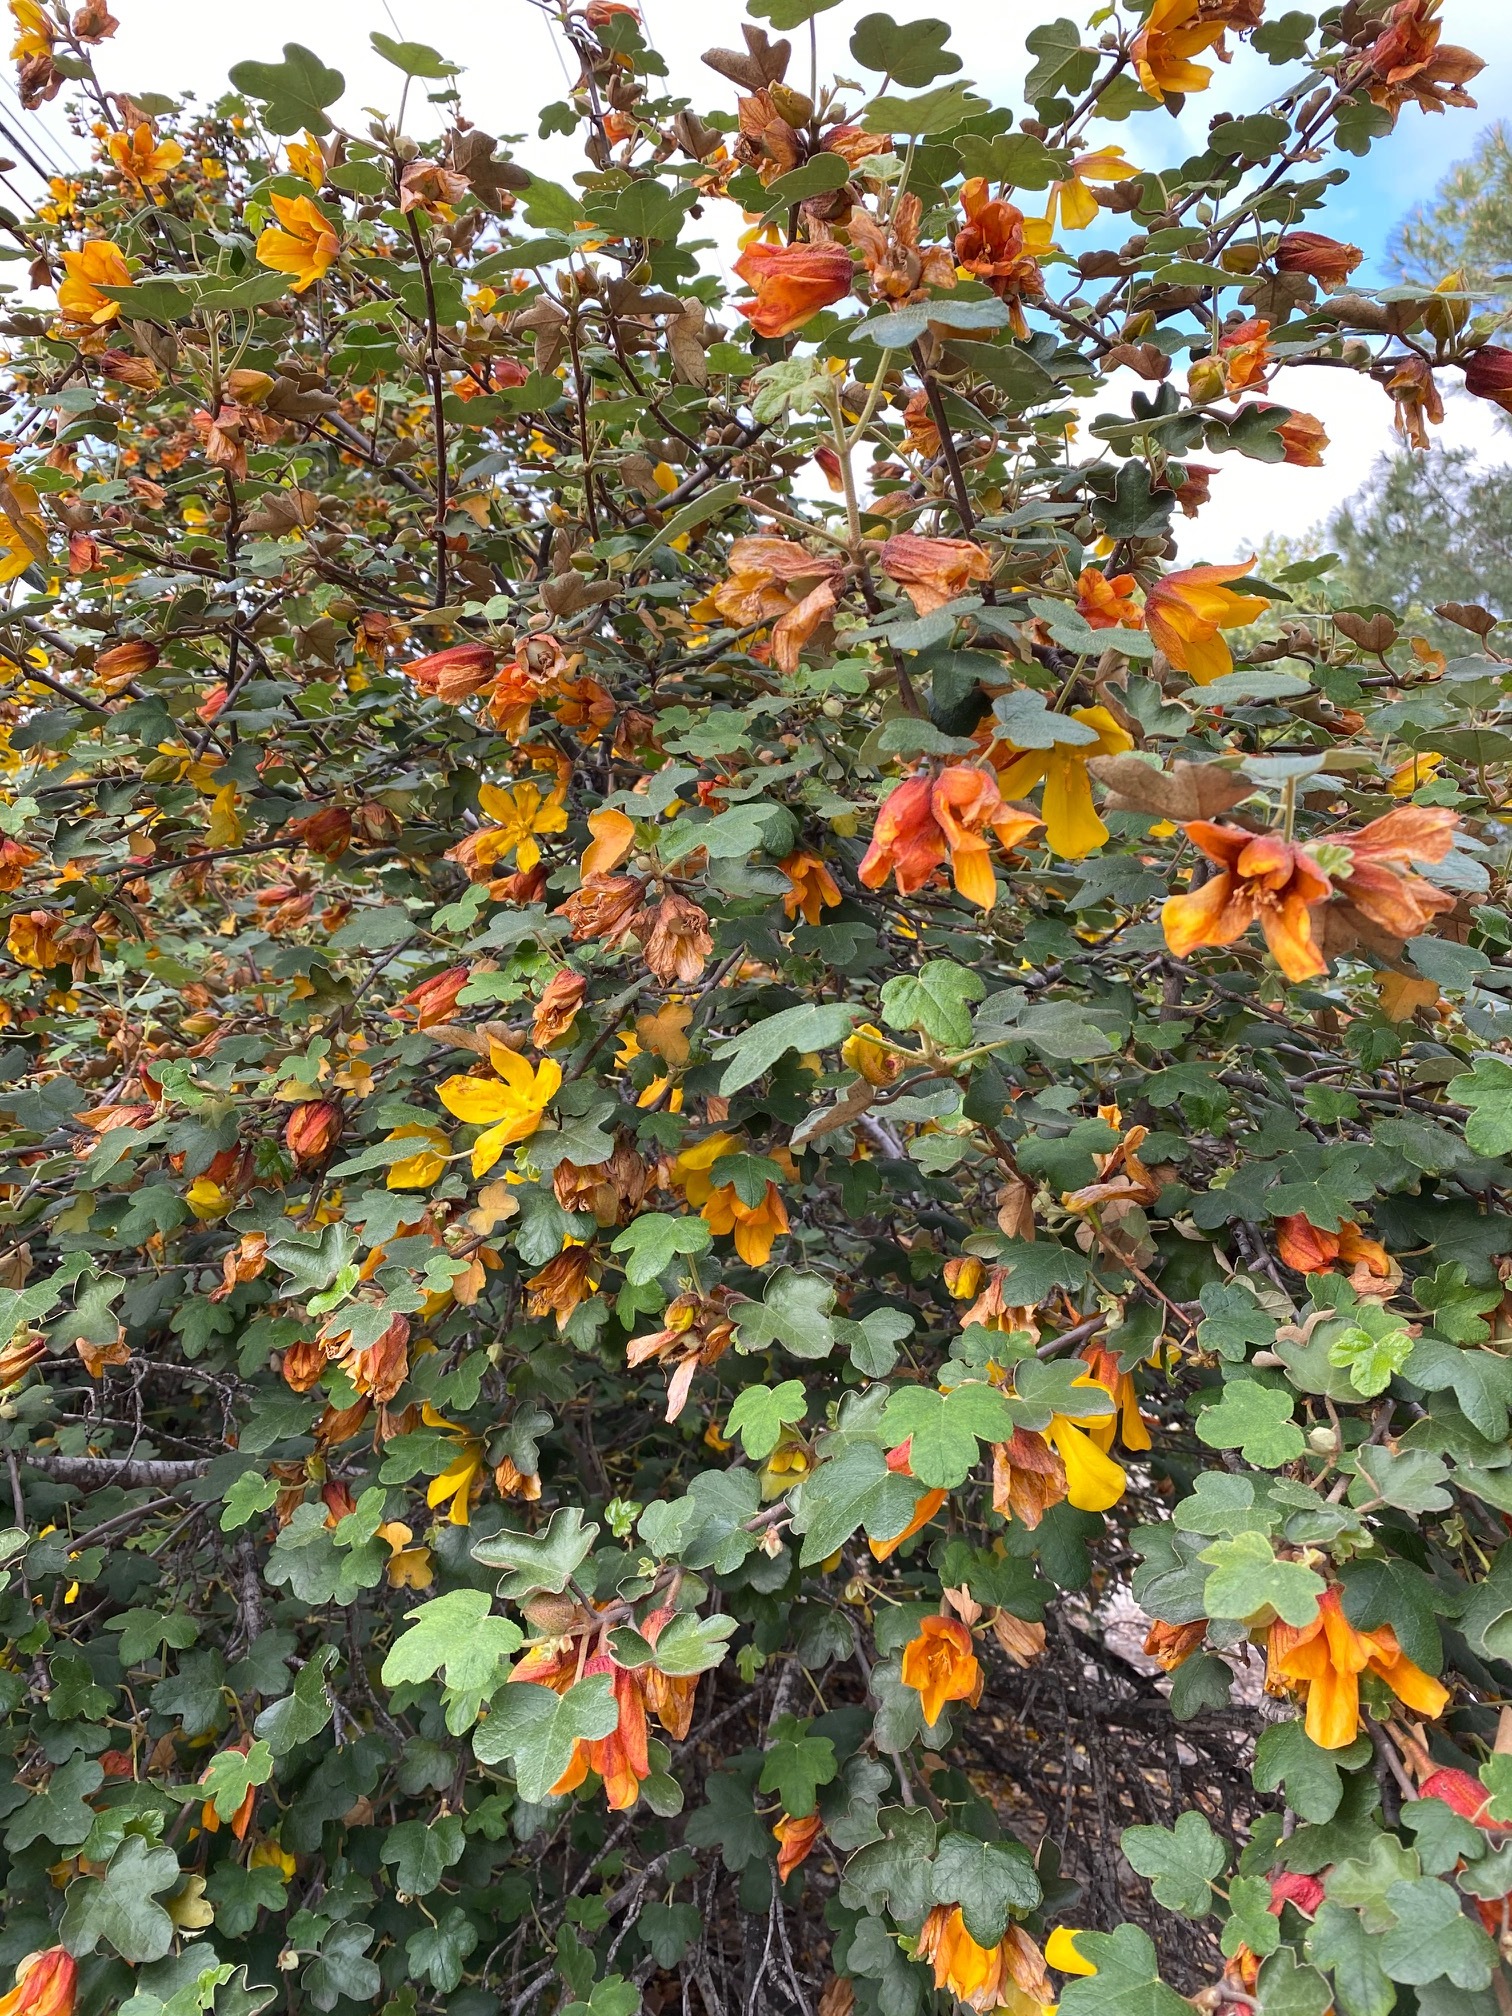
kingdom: Plantae
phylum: Tracheophyta
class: Magnoliopsida
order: Malvales
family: Malvaceae
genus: Fremontodendron
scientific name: Fremontodendron californicum
